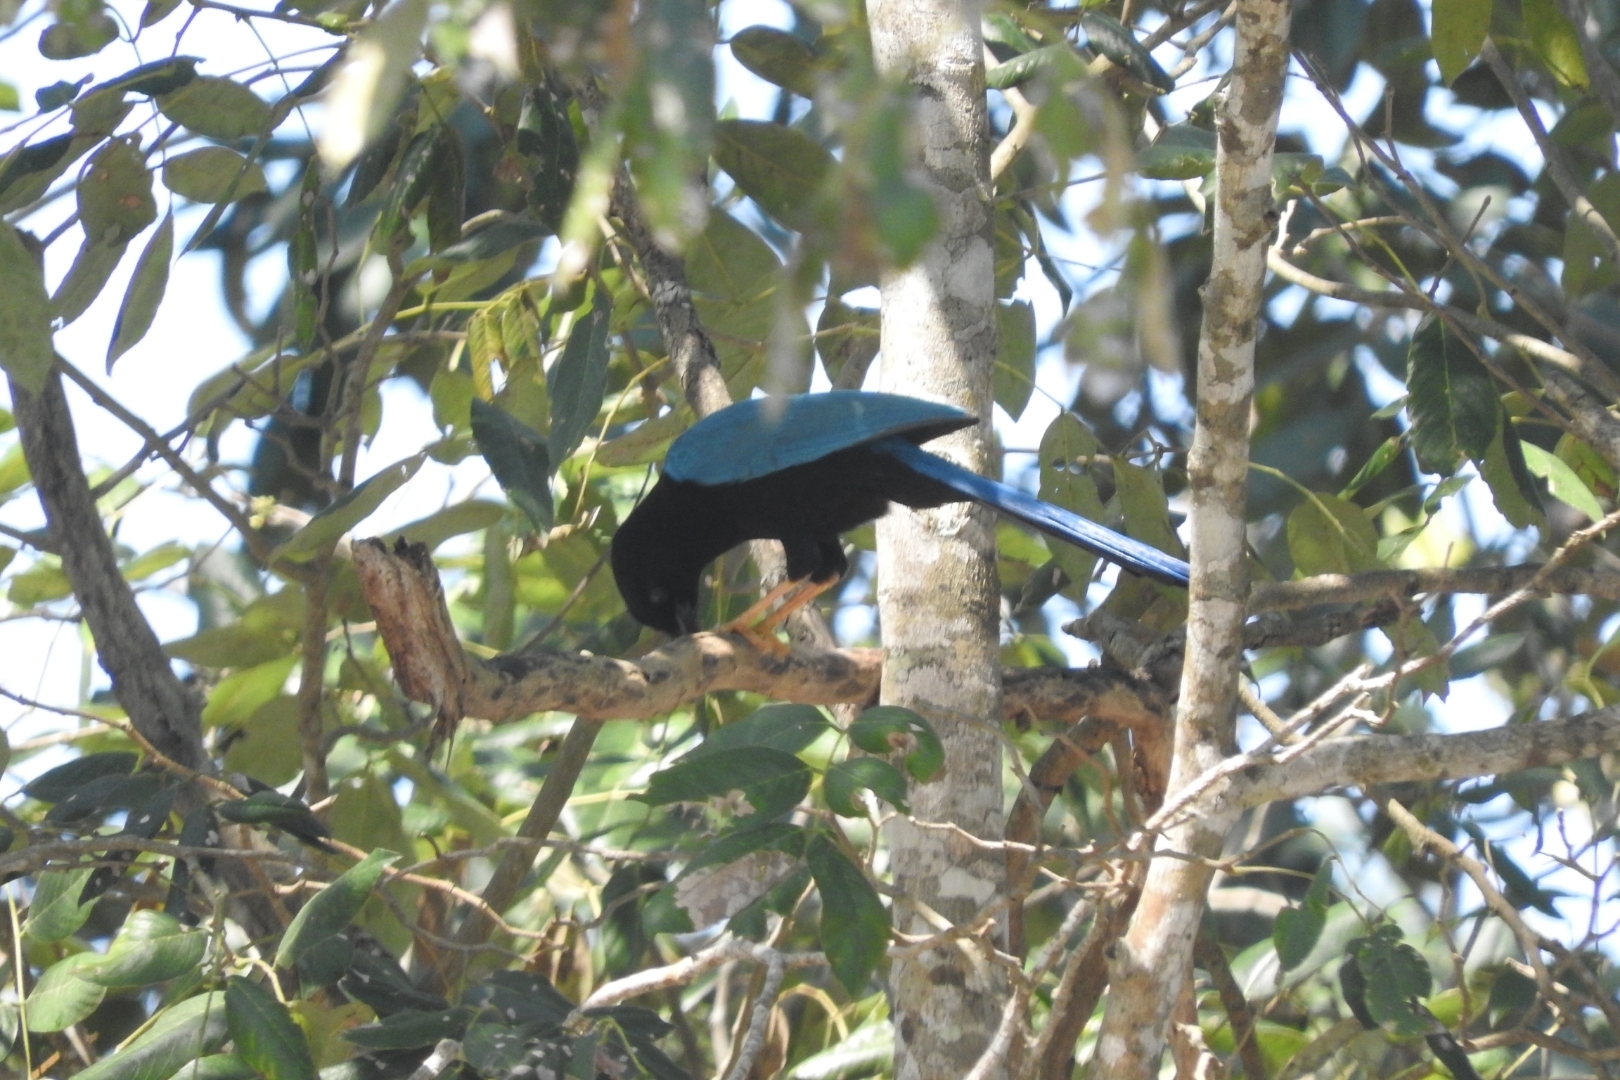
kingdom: Animalia
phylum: Chordata
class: Aves
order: Passeriformes
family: Corvidae
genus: Cyanocorax
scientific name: Cyanocorax yucatanicus
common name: Yucatan jay
